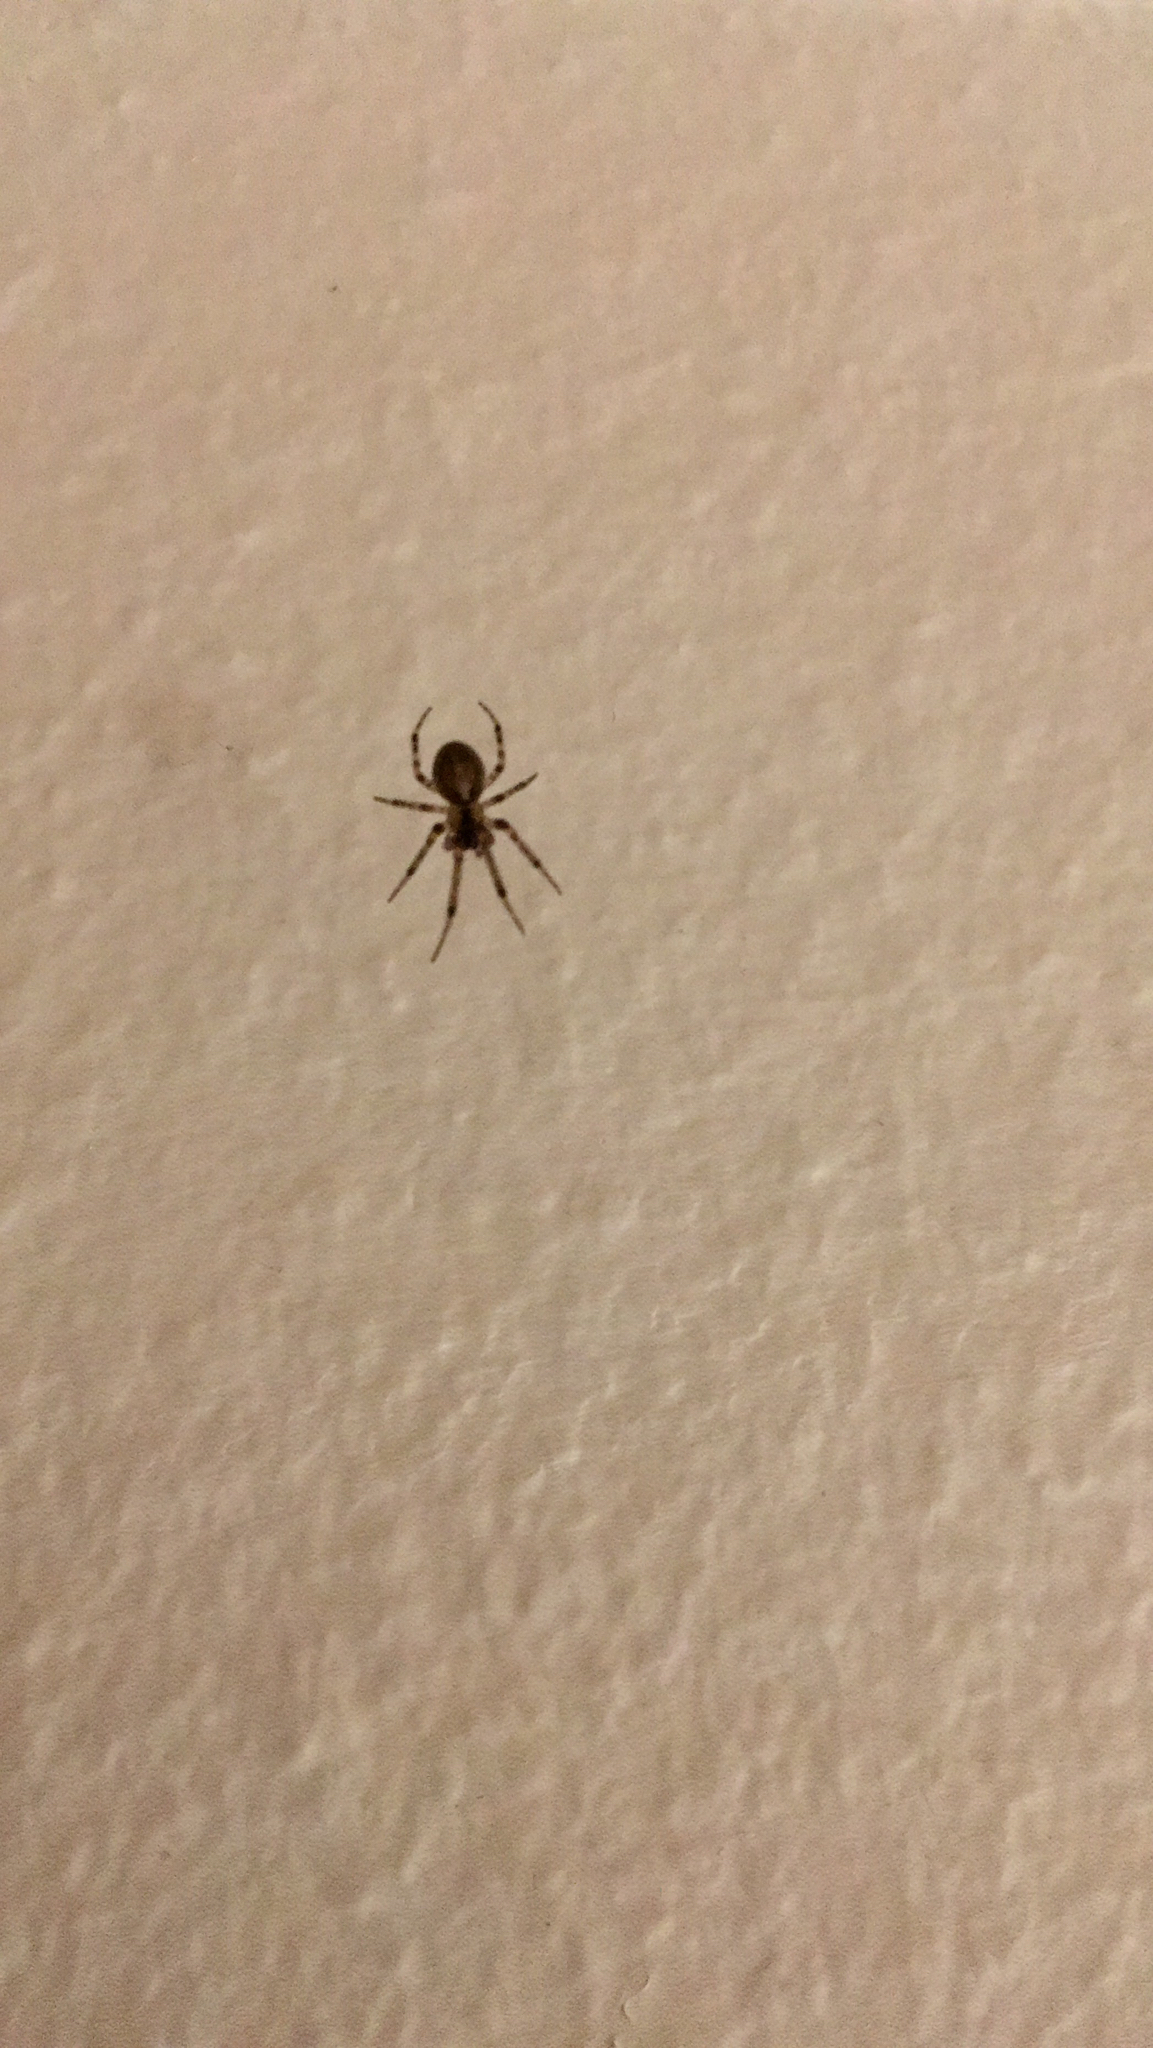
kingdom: Animalia
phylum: Arthropoda
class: Arachnida
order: Araneae
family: Araneidae
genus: Zygiella
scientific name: Zygiella x-notata
